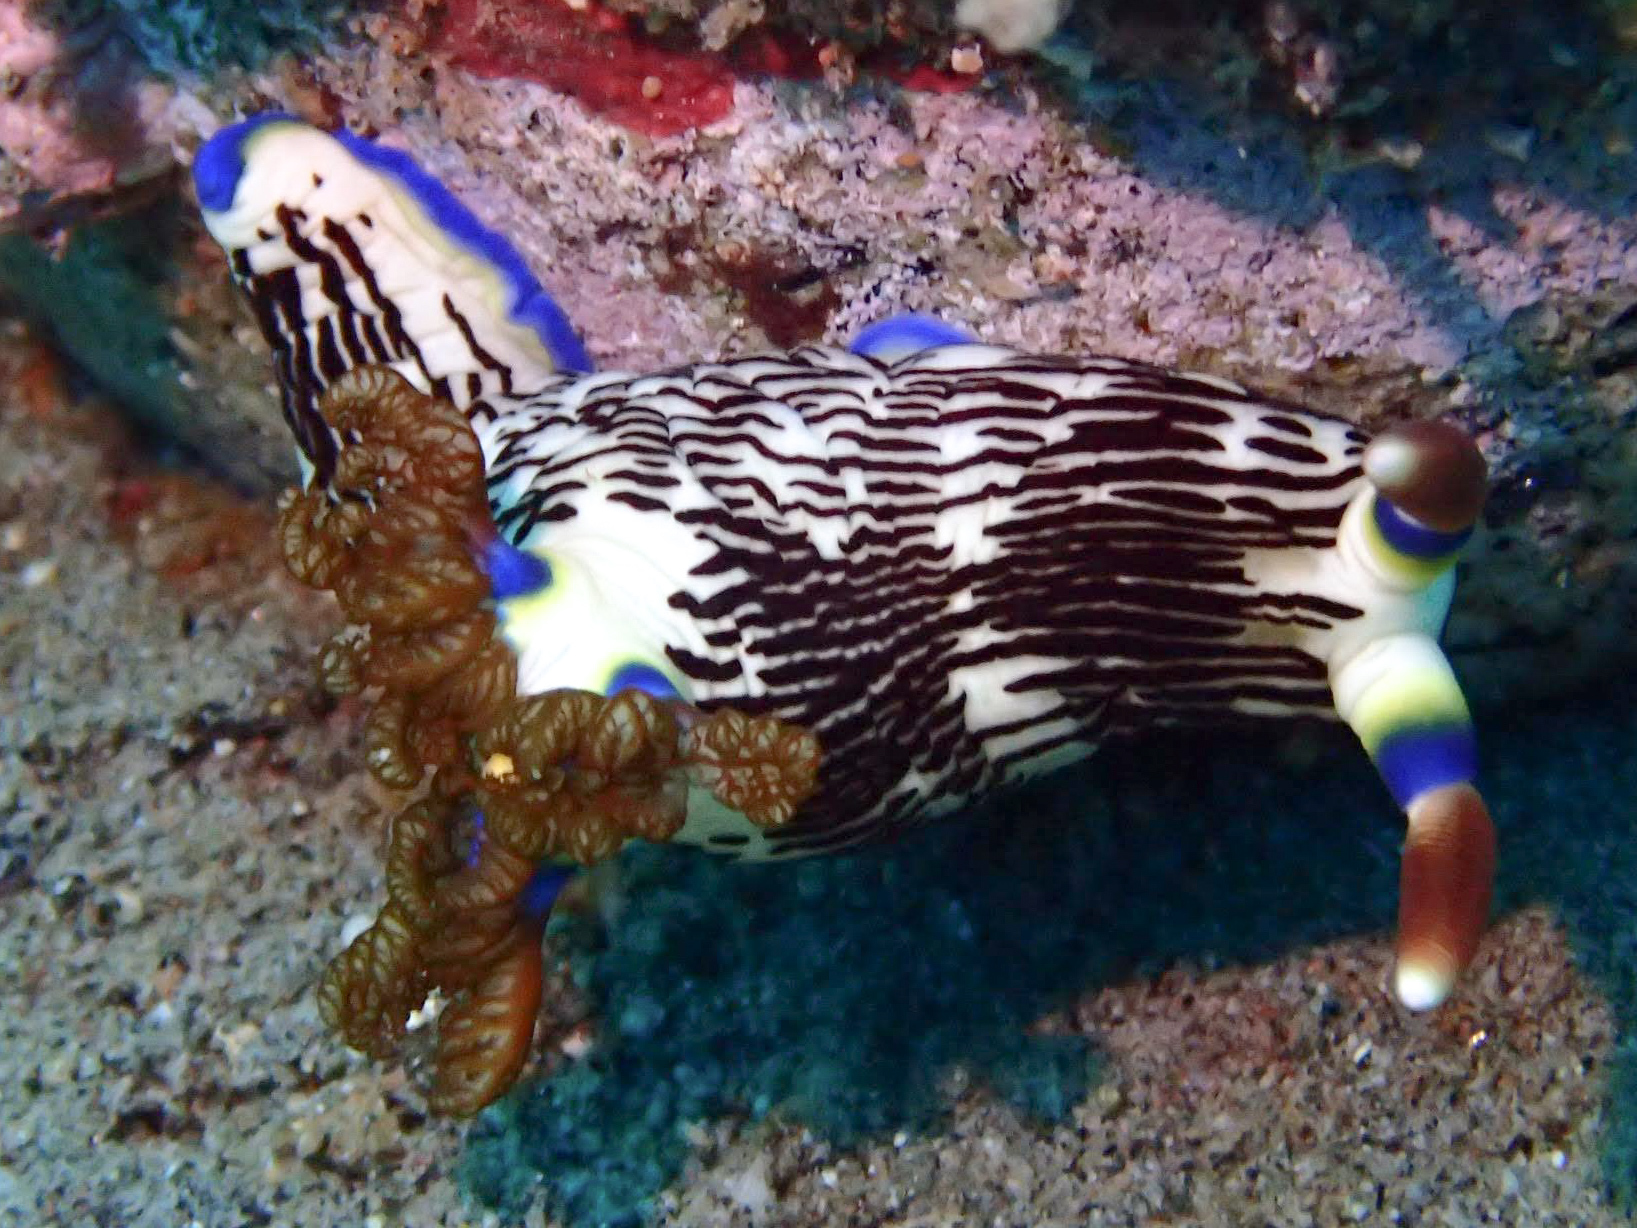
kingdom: Animalia
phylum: Mollusca
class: Gastropoda
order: Nudibranchia
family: Polyceridae
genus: Nembrotha
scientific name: Nembrotha lineolata
